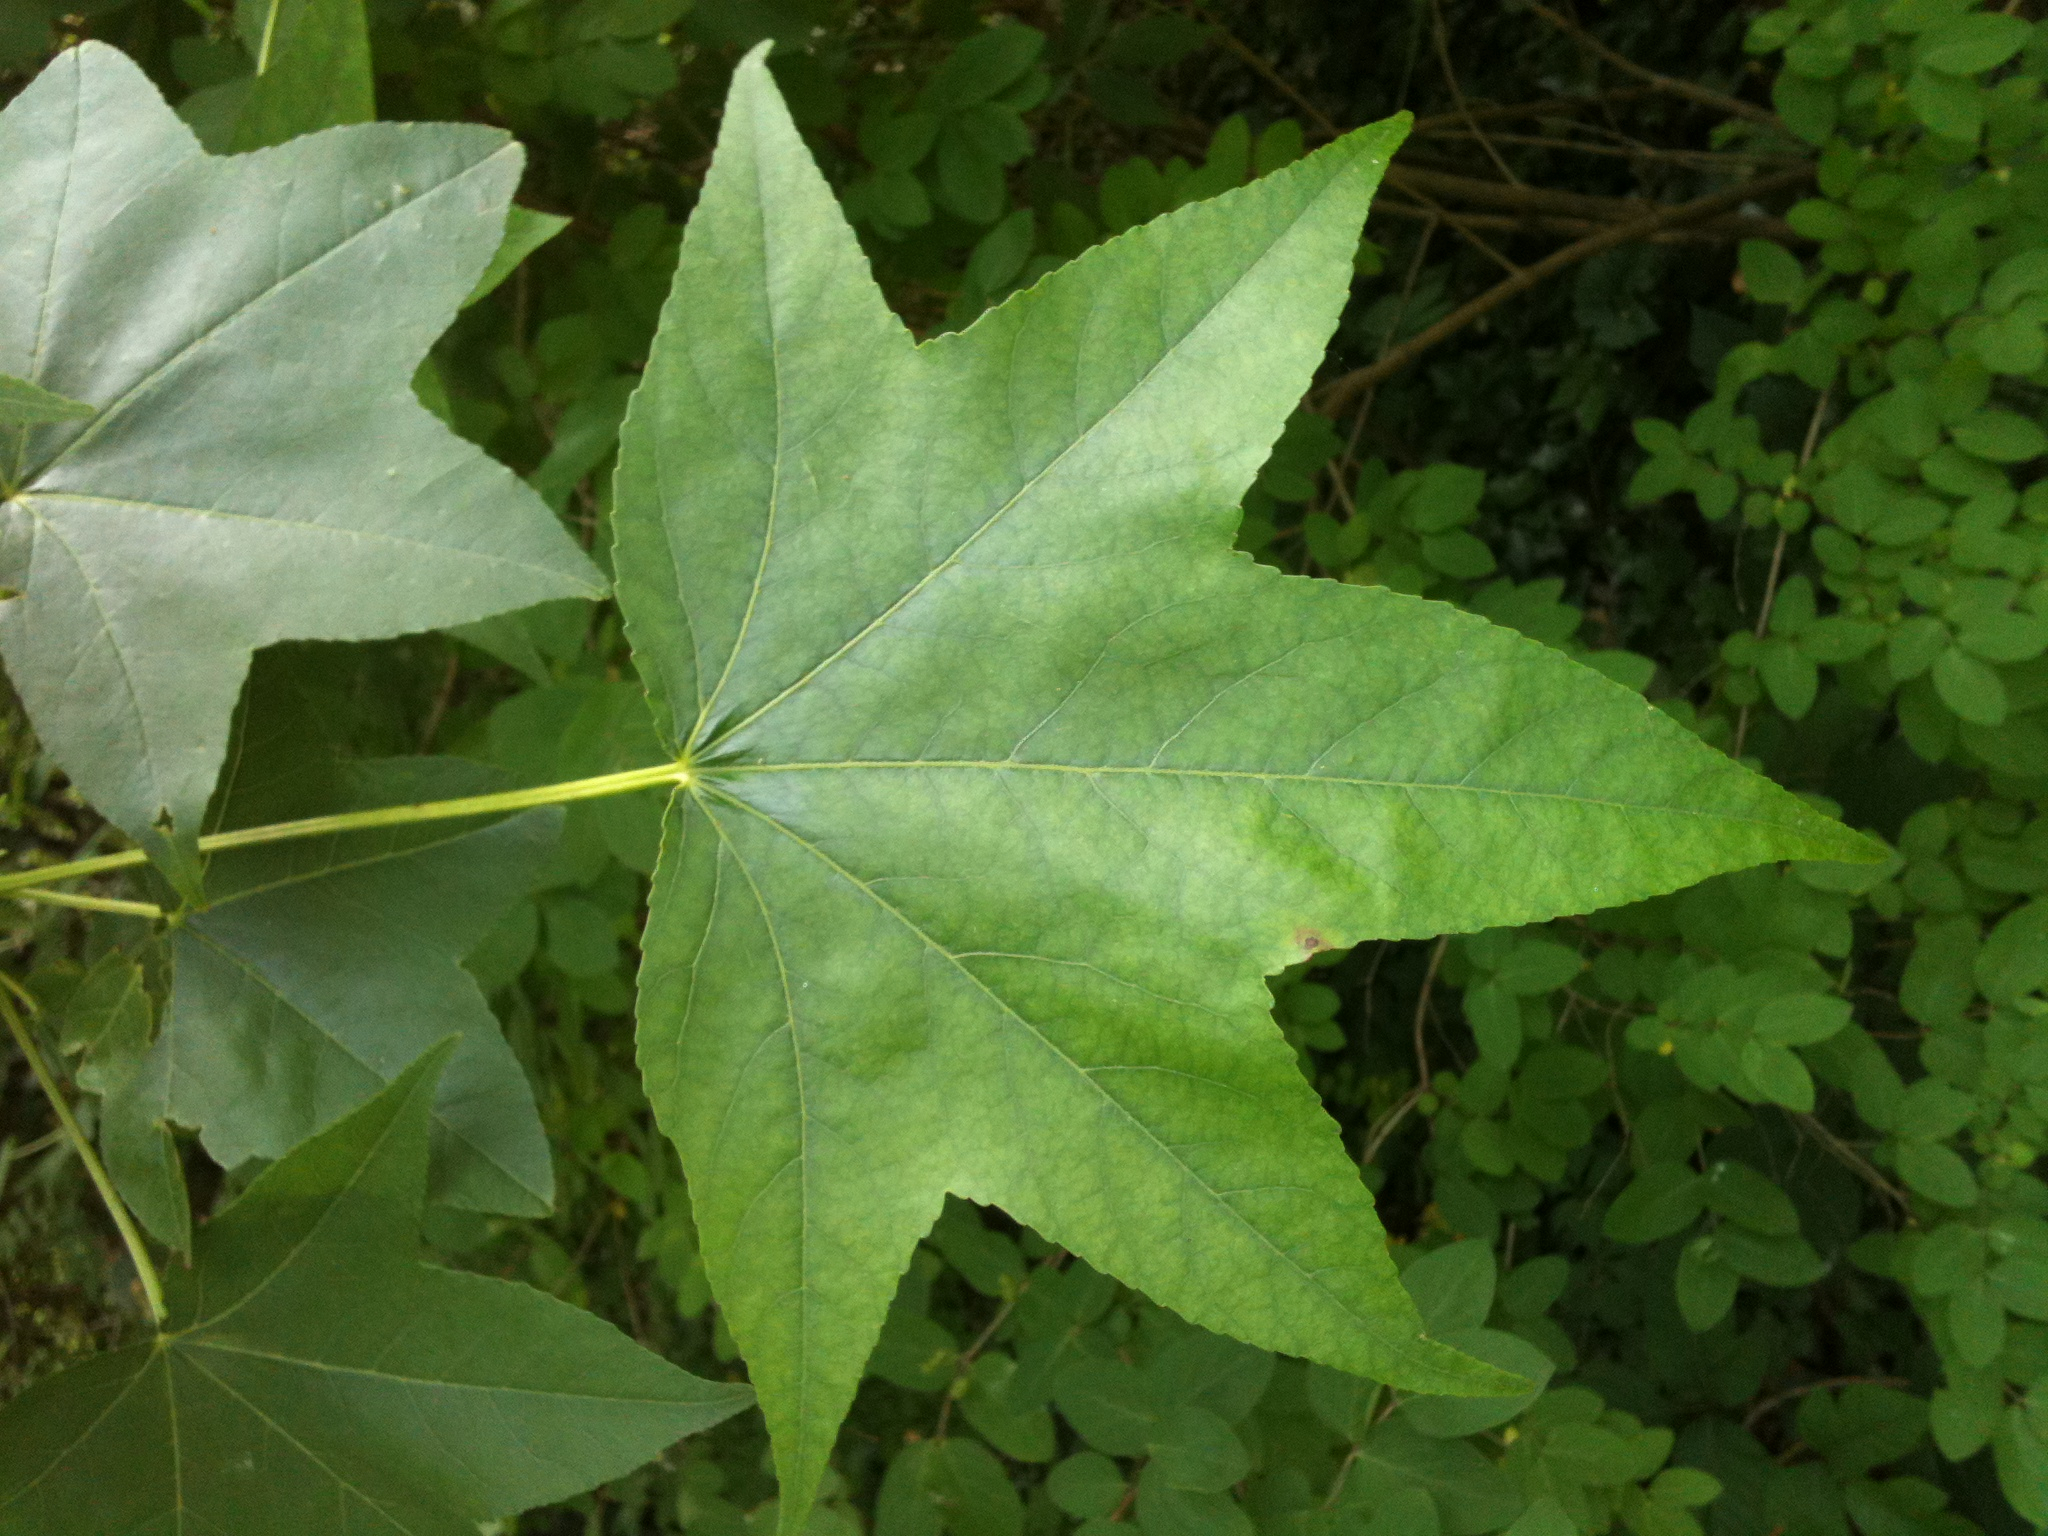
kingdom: Plantae
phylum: Tracheophyta
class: Magnoliopsida
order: Saxifragales
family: Altingiaceae
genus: Liquidambar
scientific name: Liquidambar styraciflua
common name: Sweet gum
